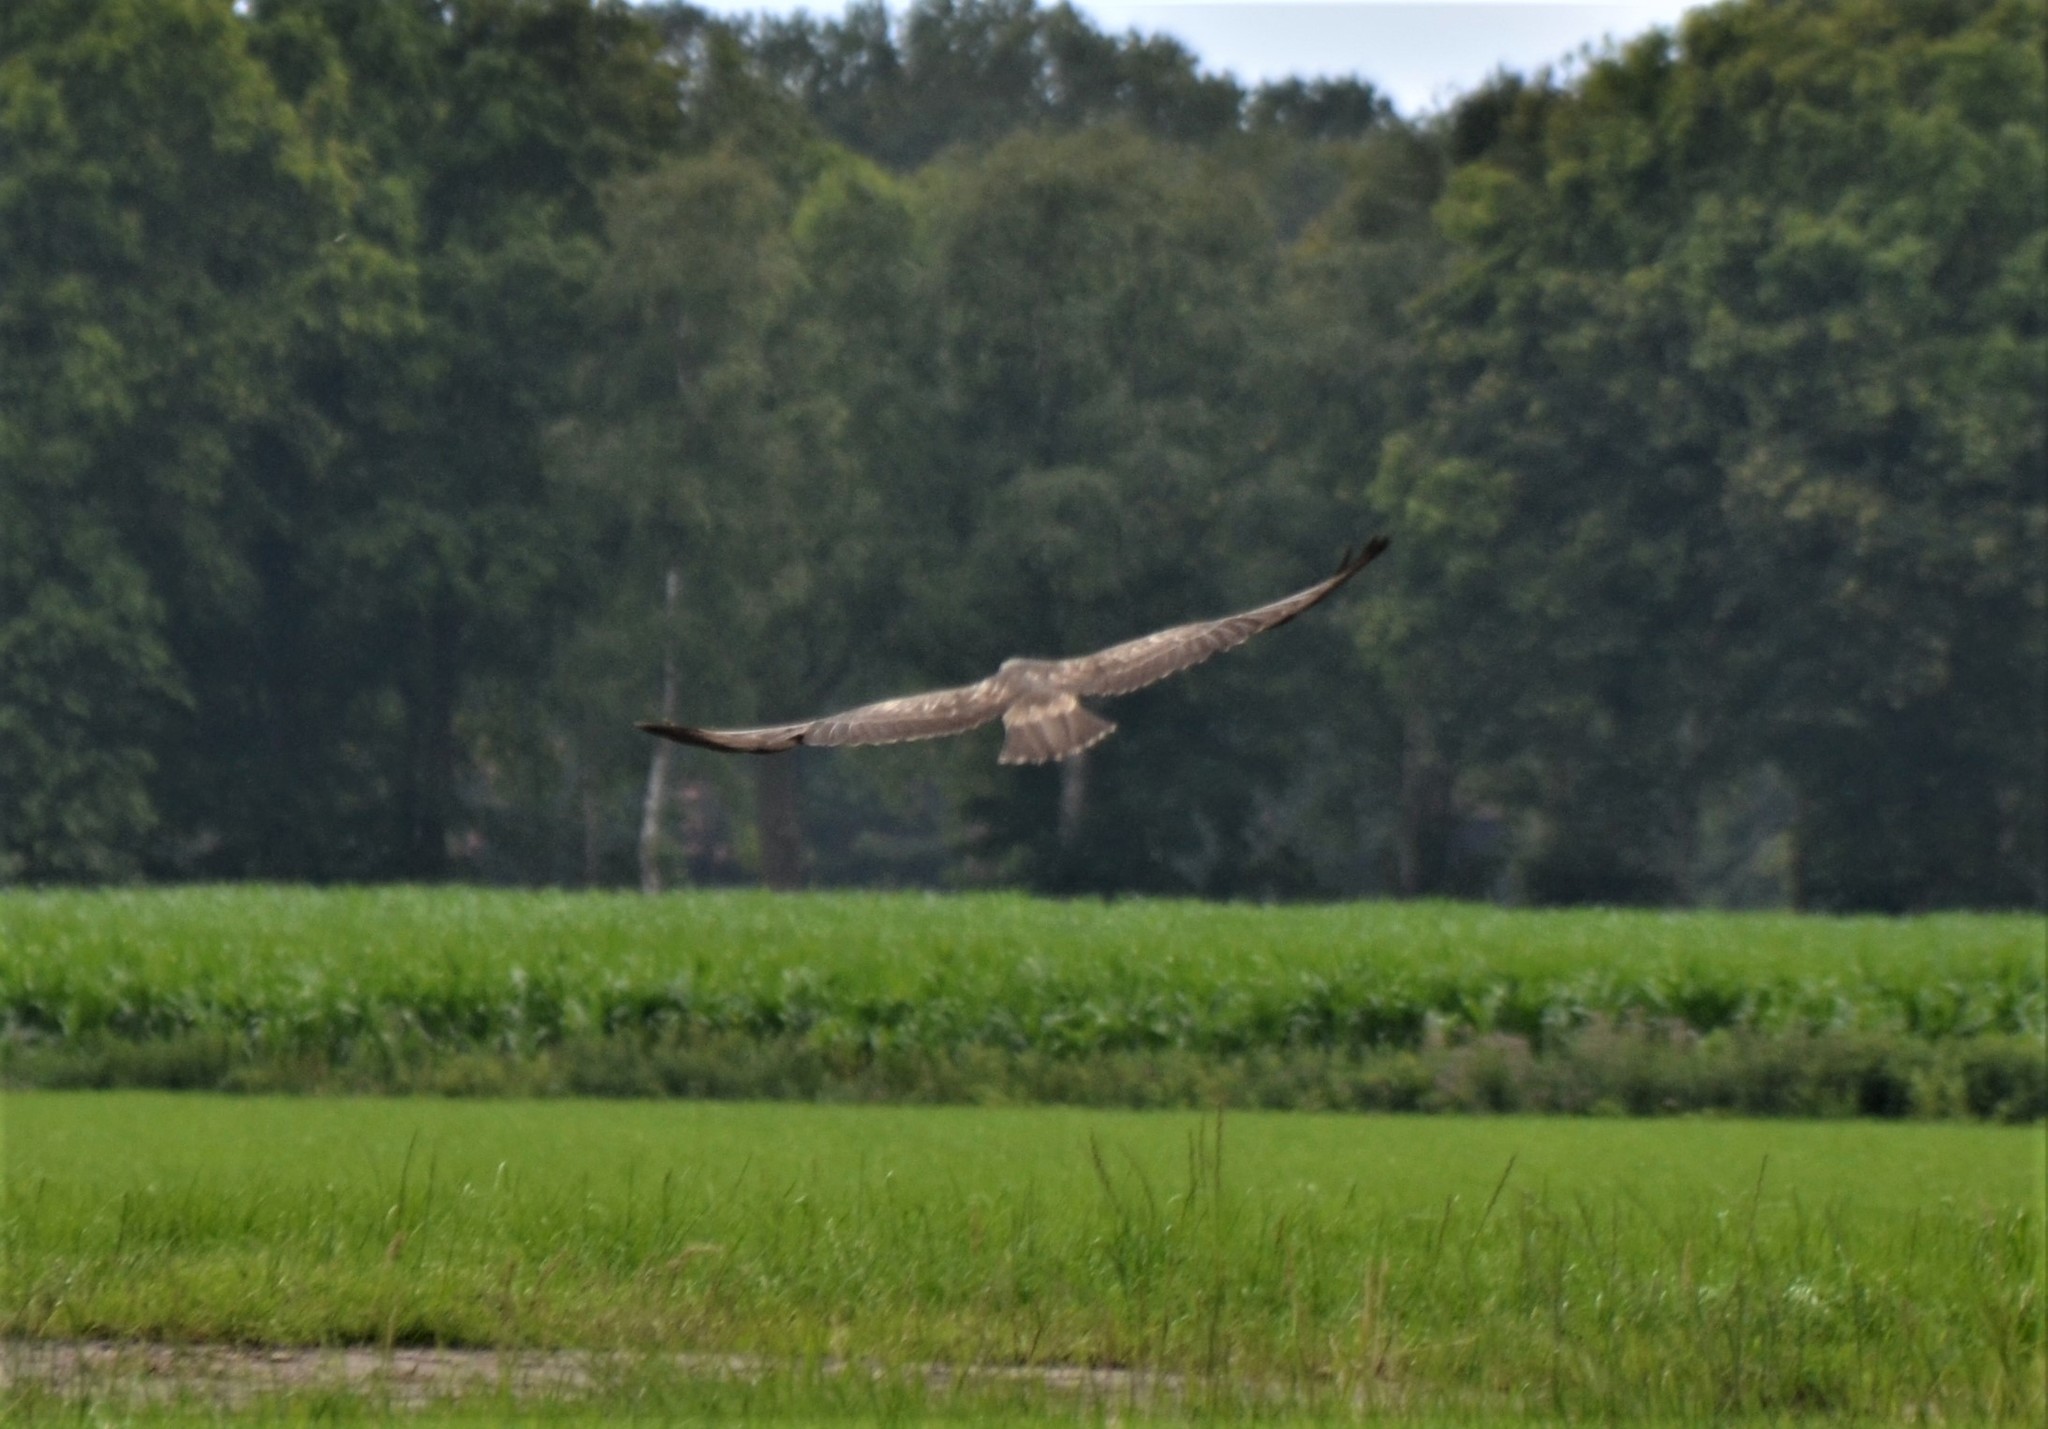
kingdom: Animalia
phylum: Chordata
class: Aves
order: Accipitriformes
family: Accipitridae
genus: Buteo
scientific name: Buteo buteo
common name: Common buzzard
